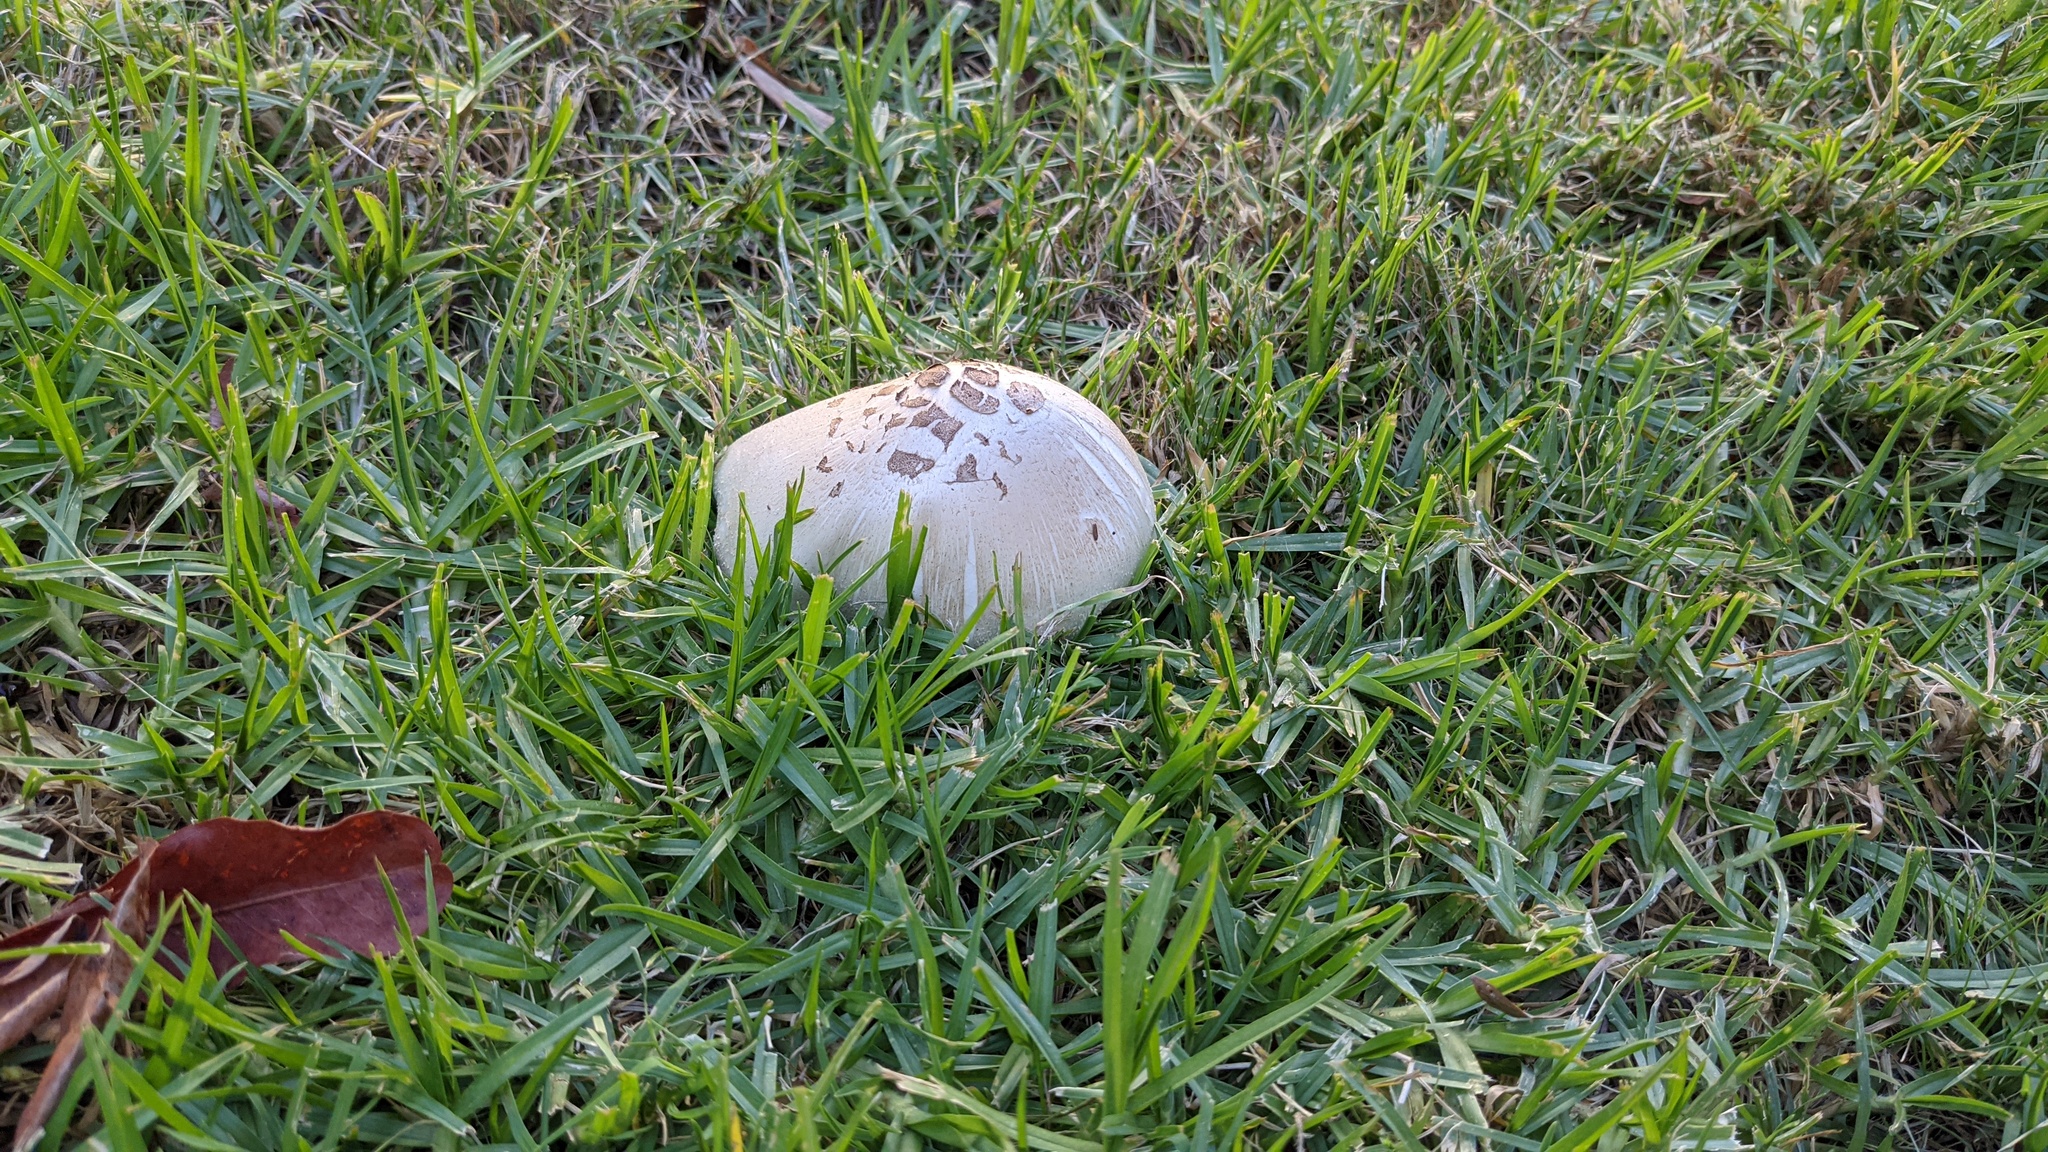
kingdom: Fungi
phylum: Basidiomycota
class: Agaricomycetes
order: Agaricales
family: Agaricaceae
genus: Chlorophyllum
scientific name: Chlorophyllum molybdites
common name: False parasol
